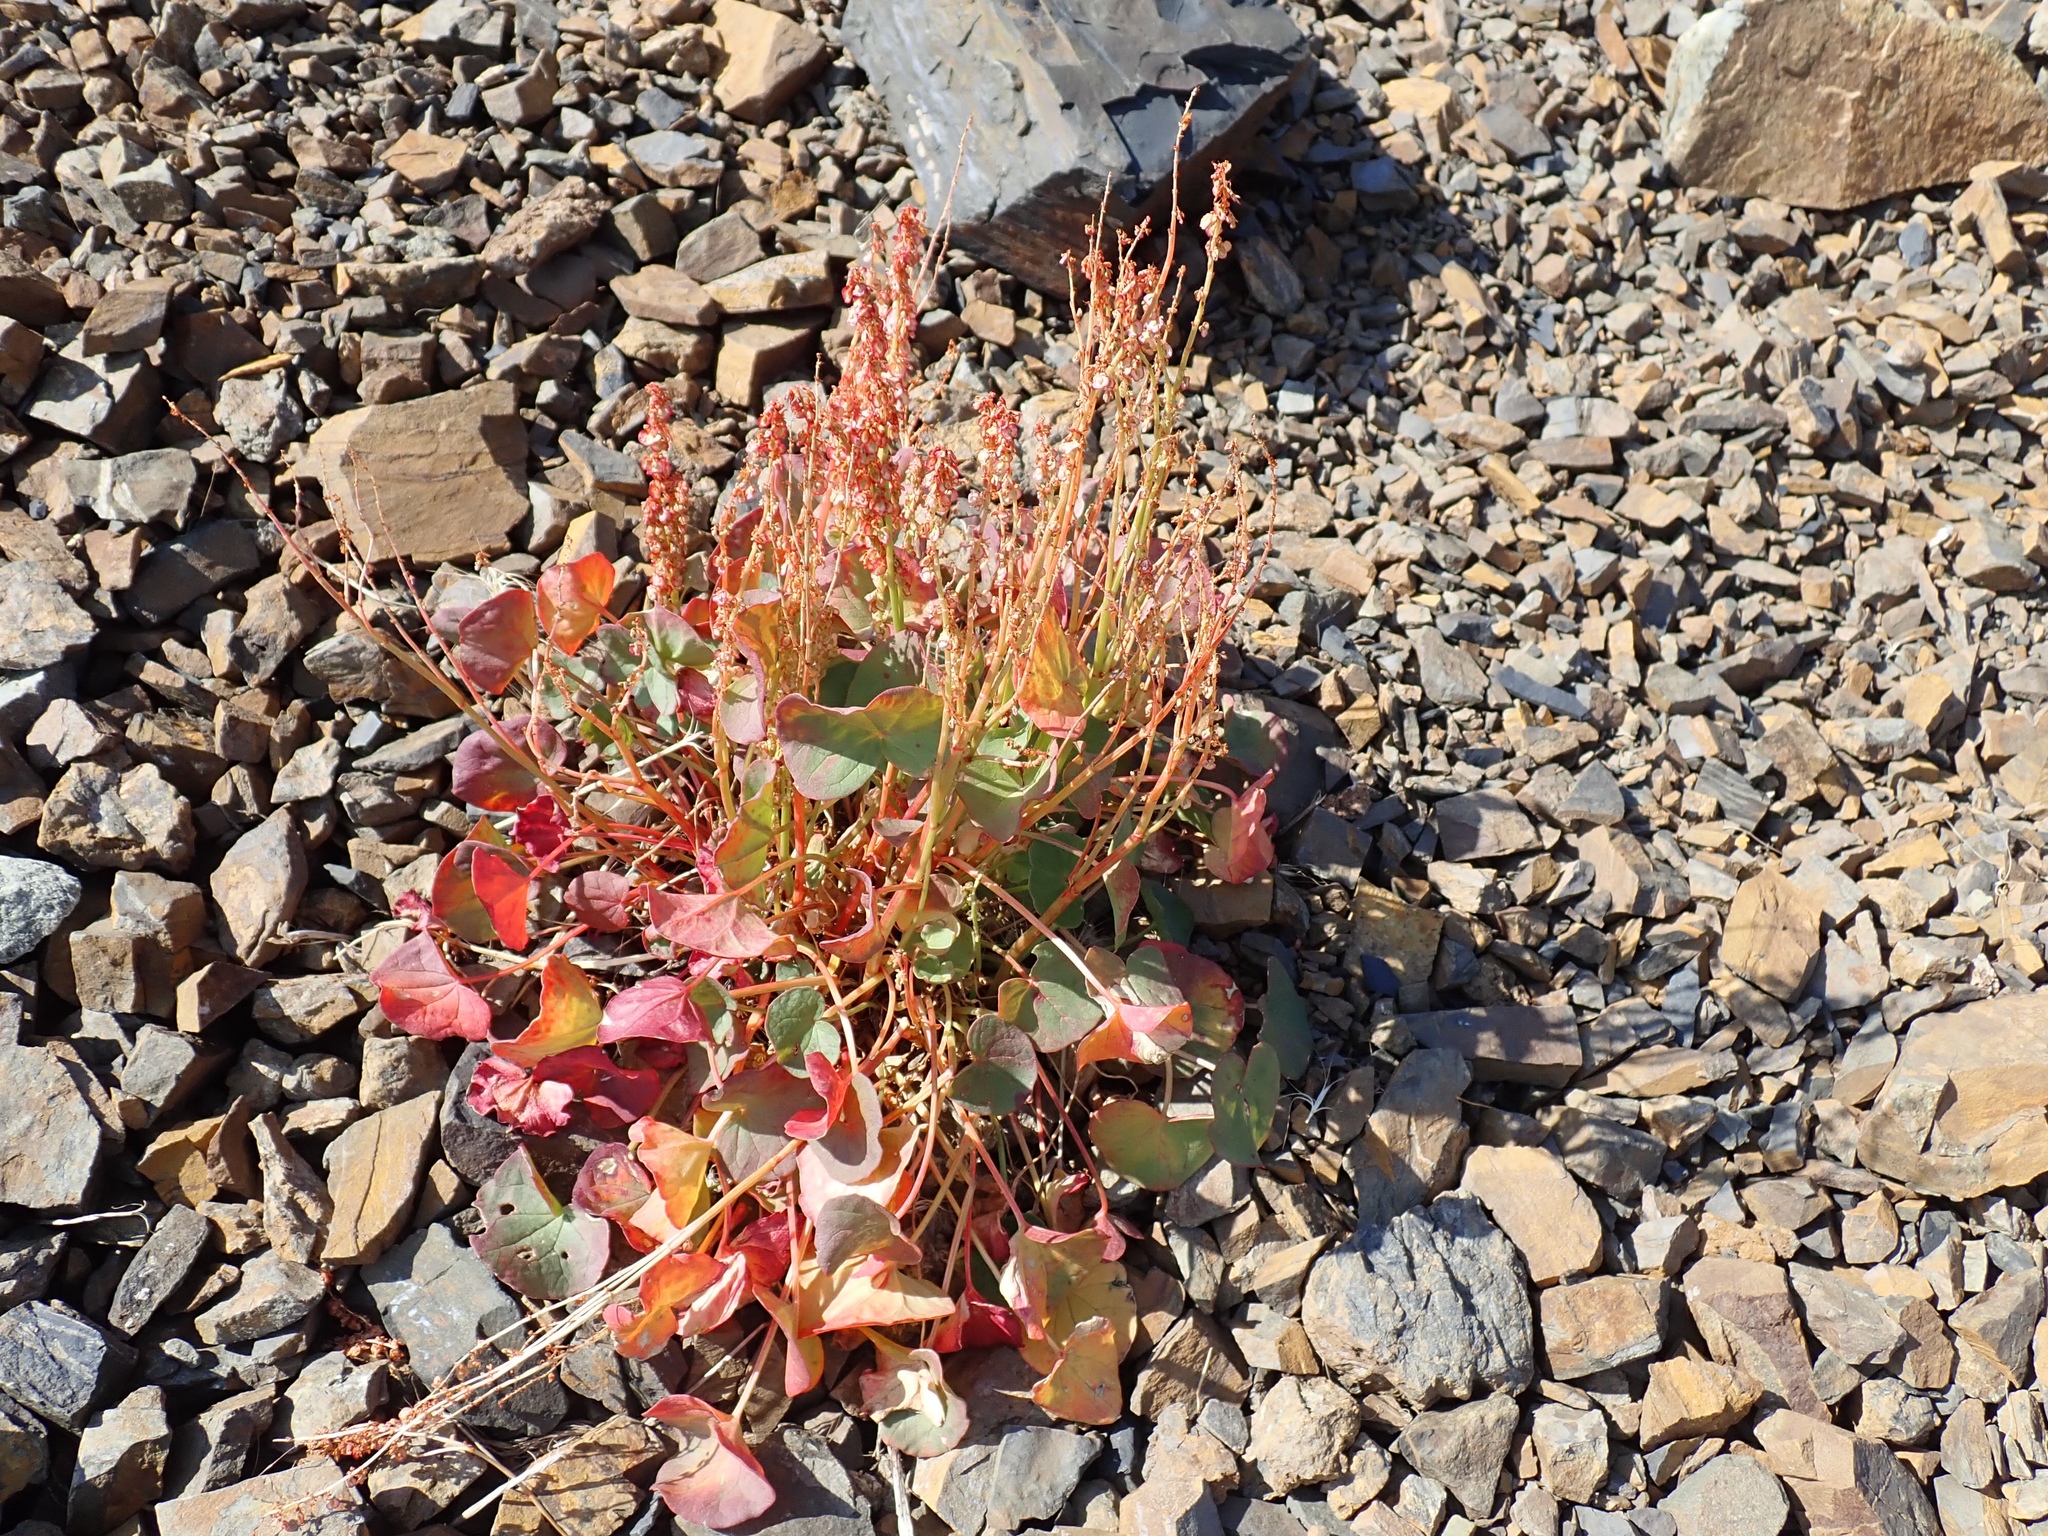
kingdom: Plantae
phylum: Tracheophyta
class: Magnoliopsida
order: Caryophyllales
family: Polygonaceae
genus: Oxyria
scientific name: Oxyria digyna
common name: Alpine mountain-sorrel
